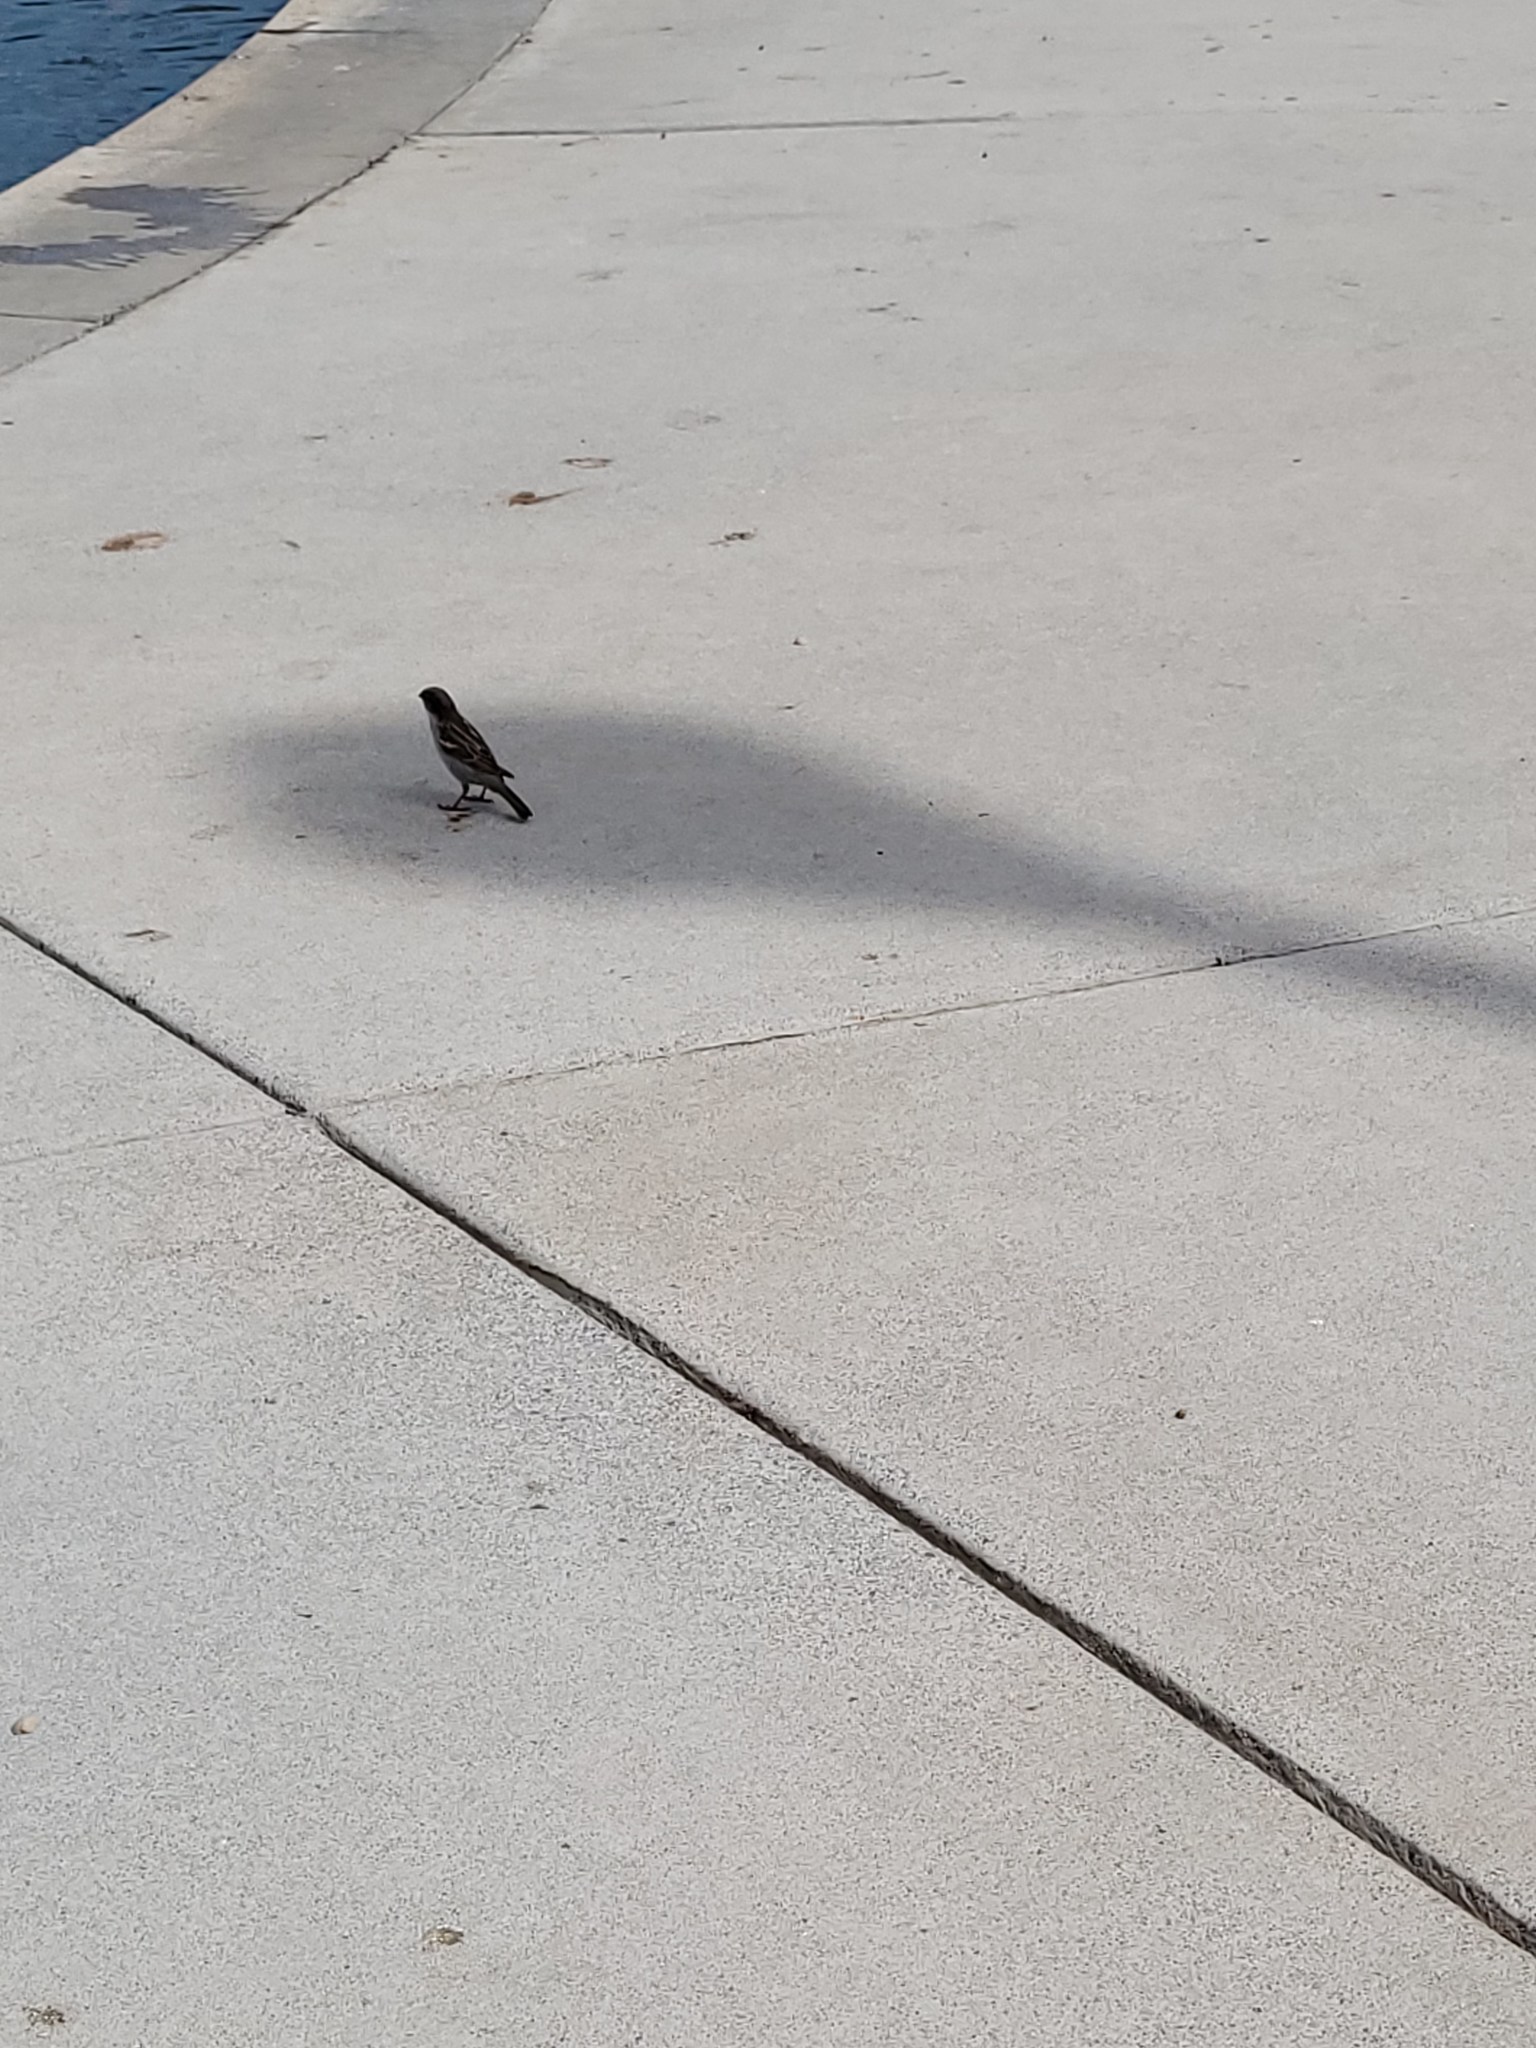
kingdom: Animalia
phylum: Chordata
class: Aves
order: Passeriformes
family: Passeridae
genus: Passer
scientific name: Passer domesticus
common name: House sparrow
